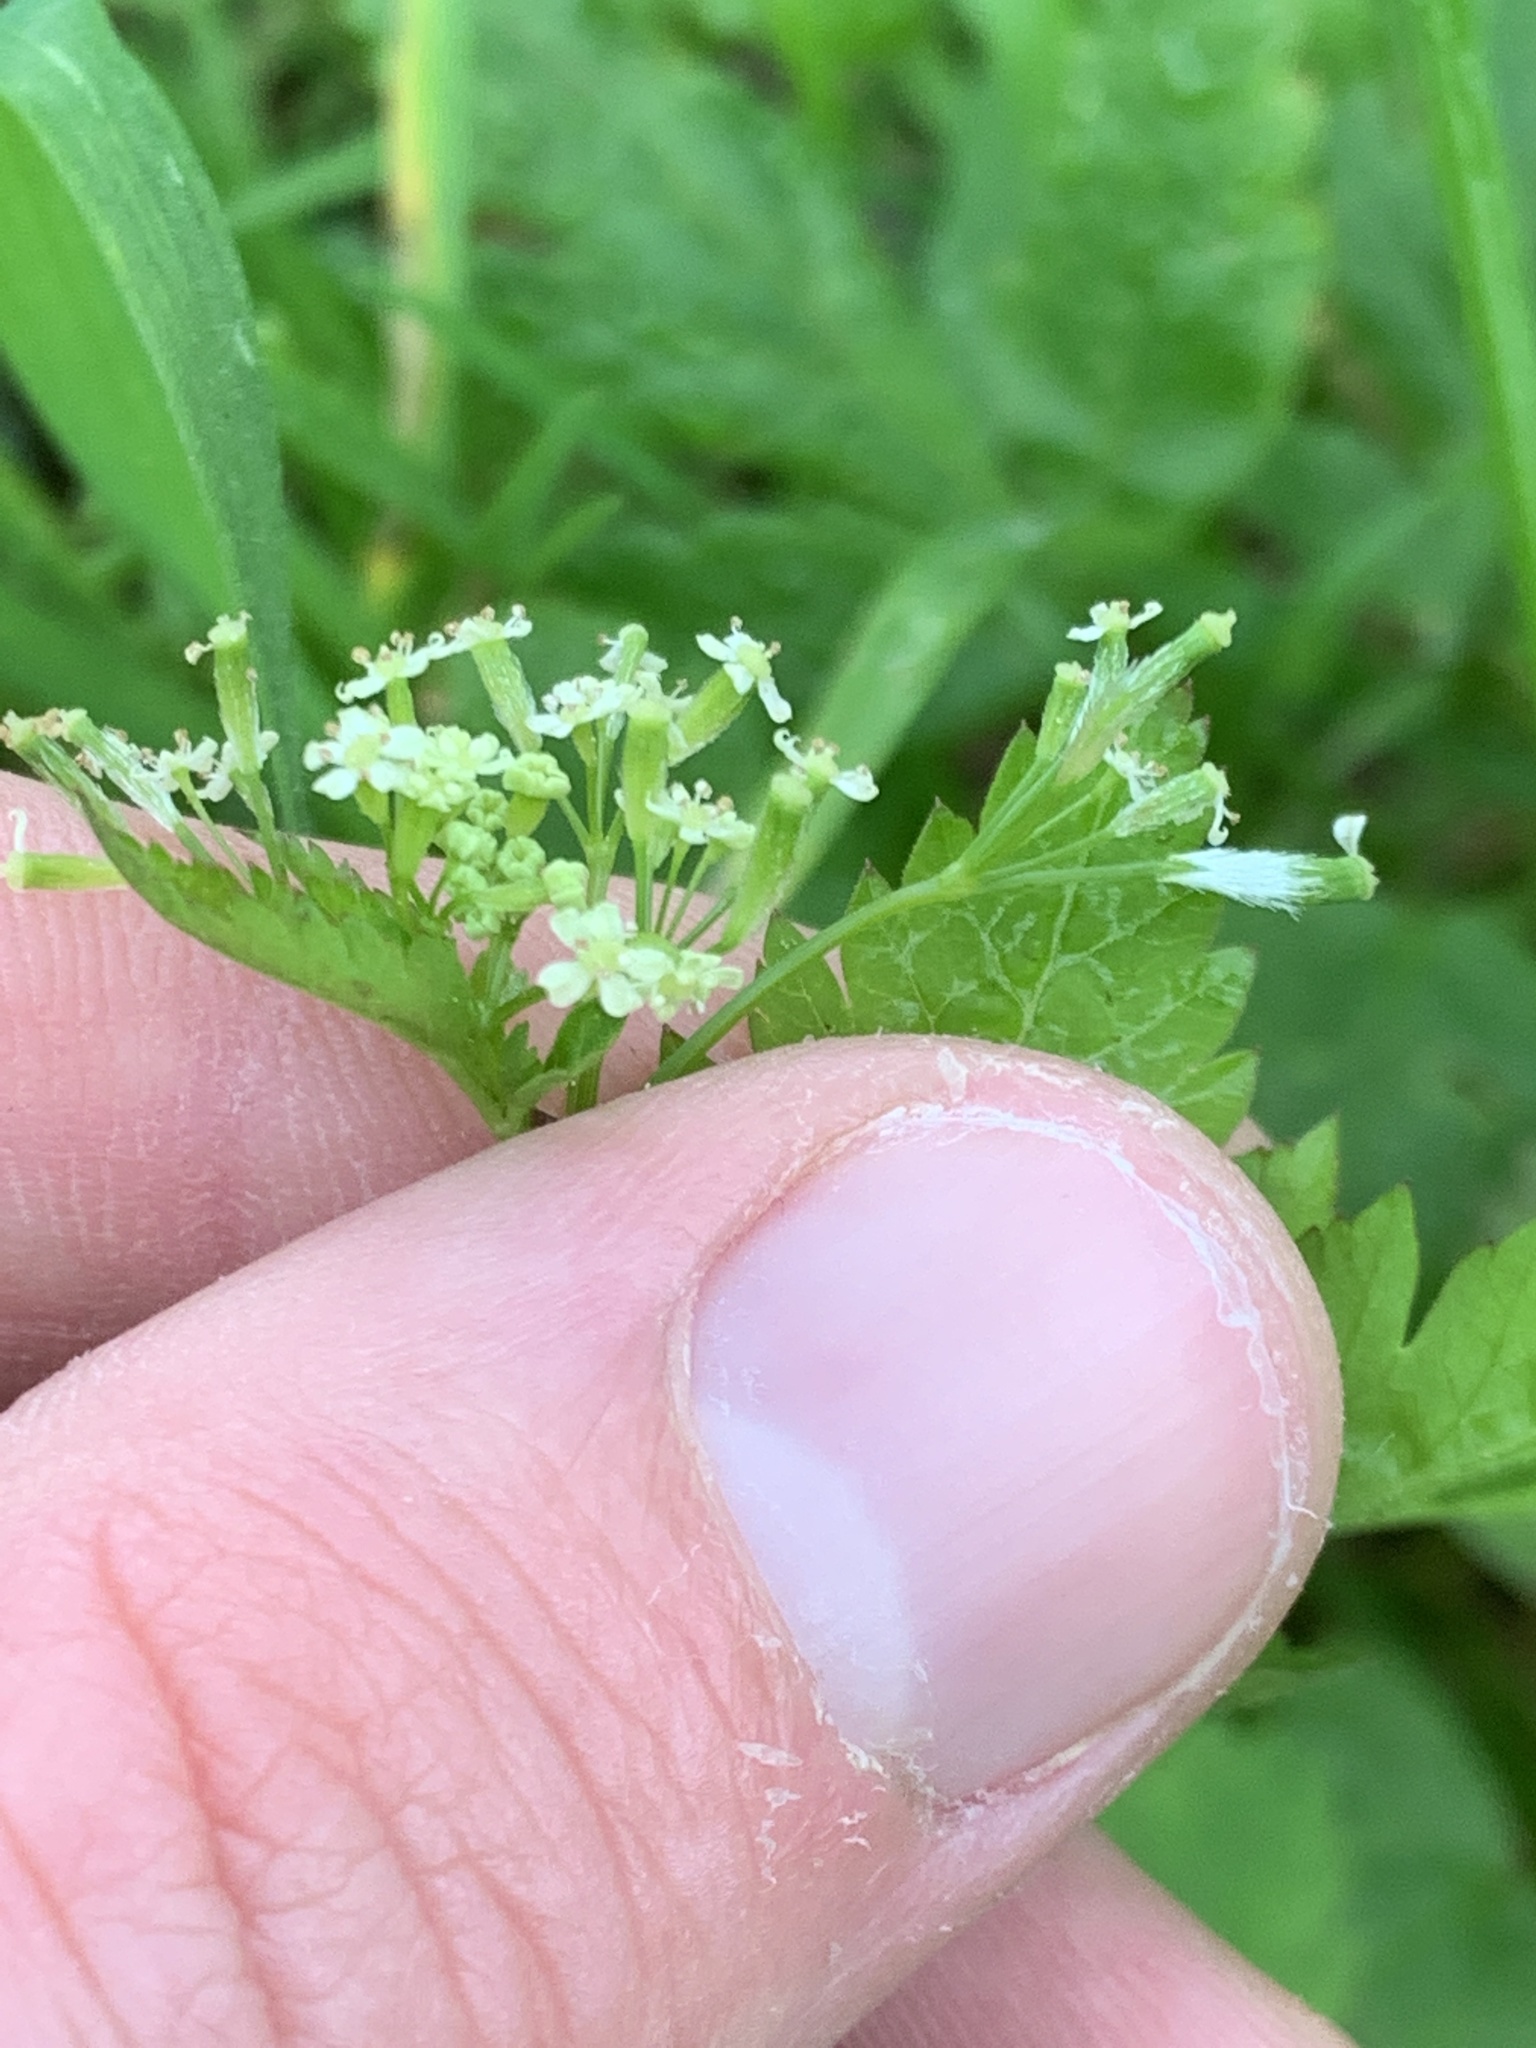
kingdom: Plantae
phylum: Tracheophyta
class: Magnoliopsida
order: Apiales
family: Apiaceae
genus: Osmorhiza
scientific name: Osmorhiza berteroi
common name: Mountain sweet cicely
